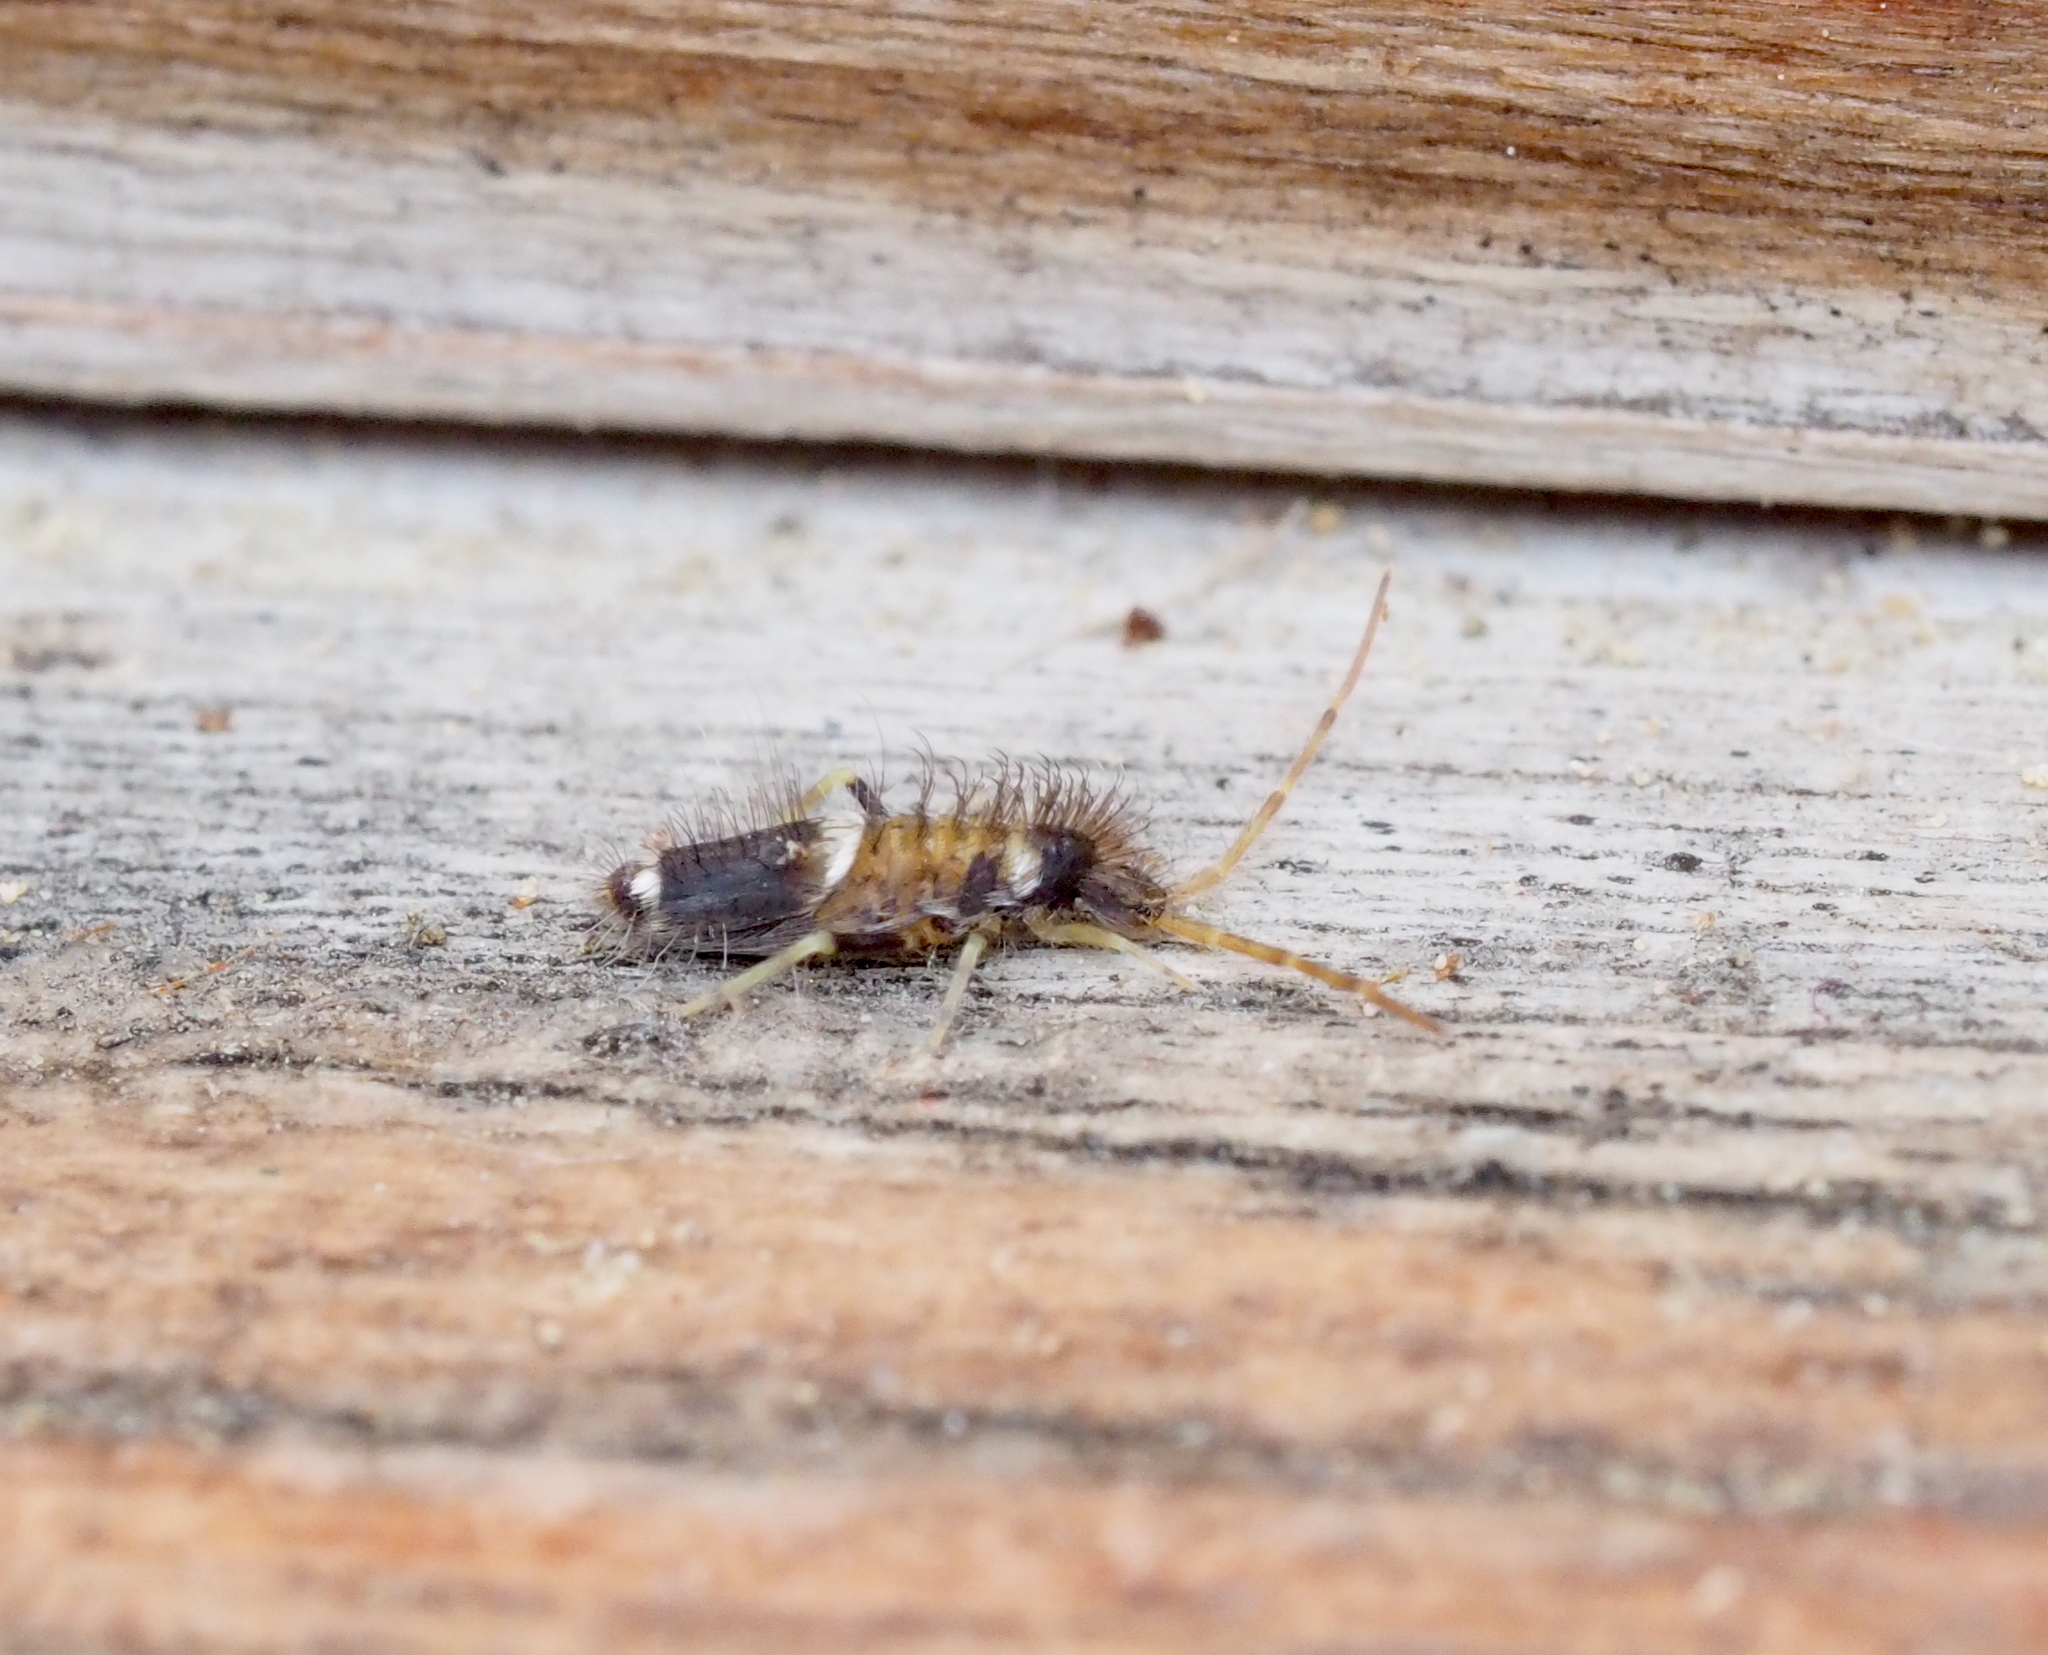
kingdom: Animalia
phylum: Arthropoda
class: Collembola
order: Entomobryomorpha
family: Entomobryidae
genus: Entomobrya
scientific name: Entomobrya dorsalis
